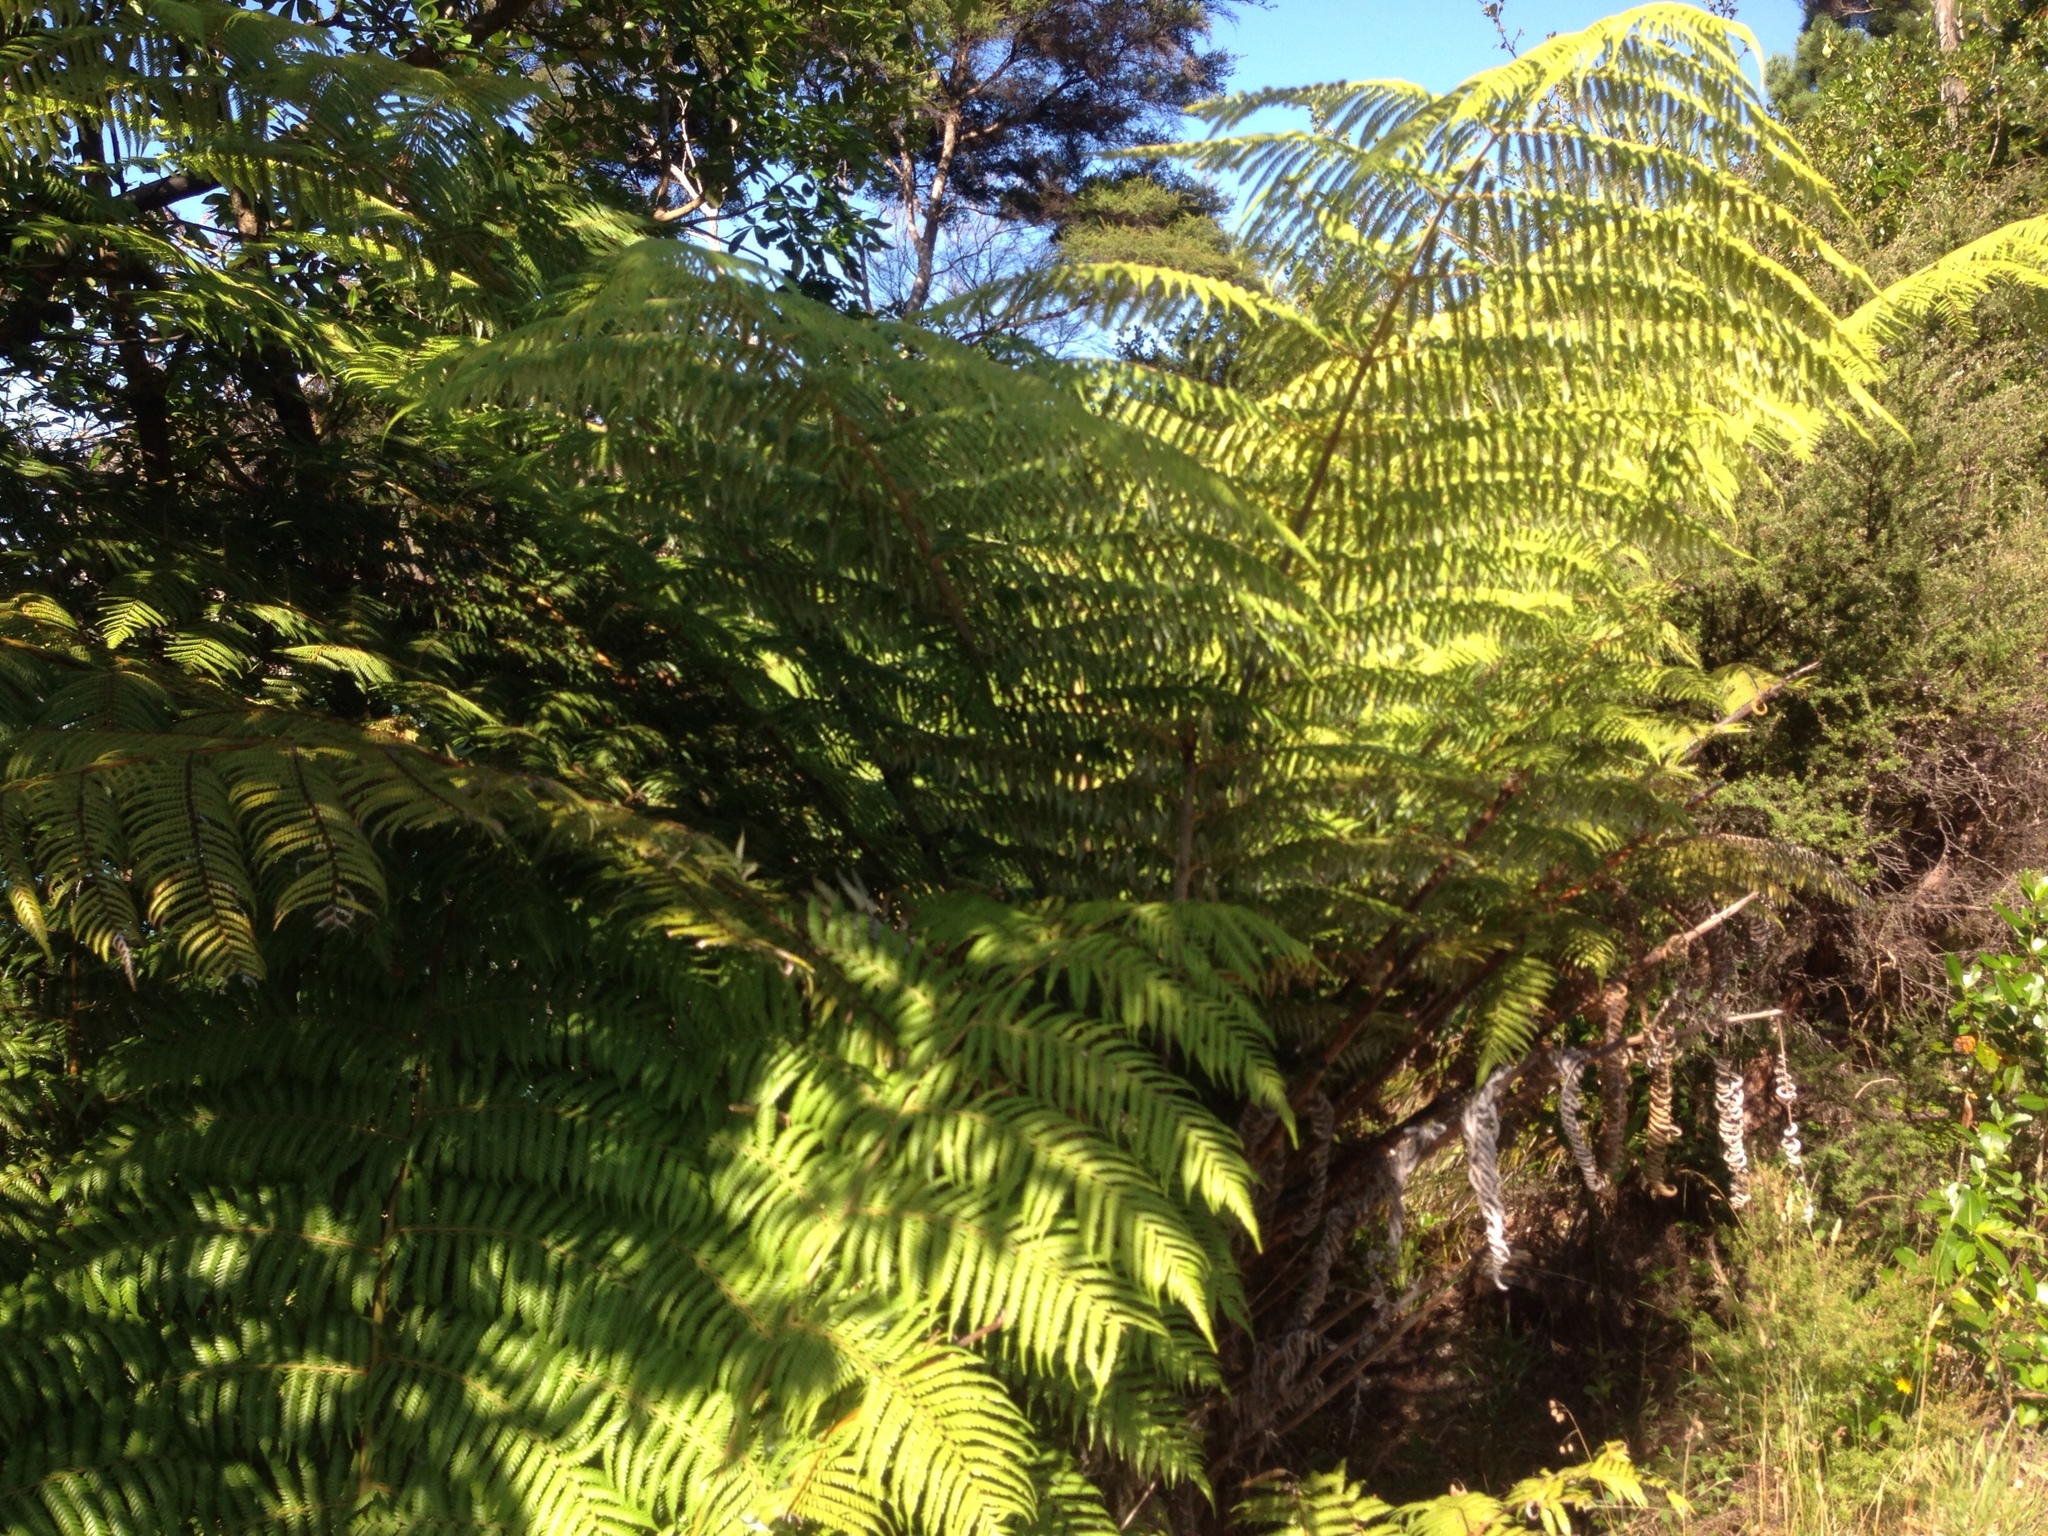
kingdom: Plantae
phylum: Tracheophyta
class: Polypodiopsida
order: Cyatheales
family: Cyatheaceae
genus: Alsophila
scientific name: Alsophila dealbata
